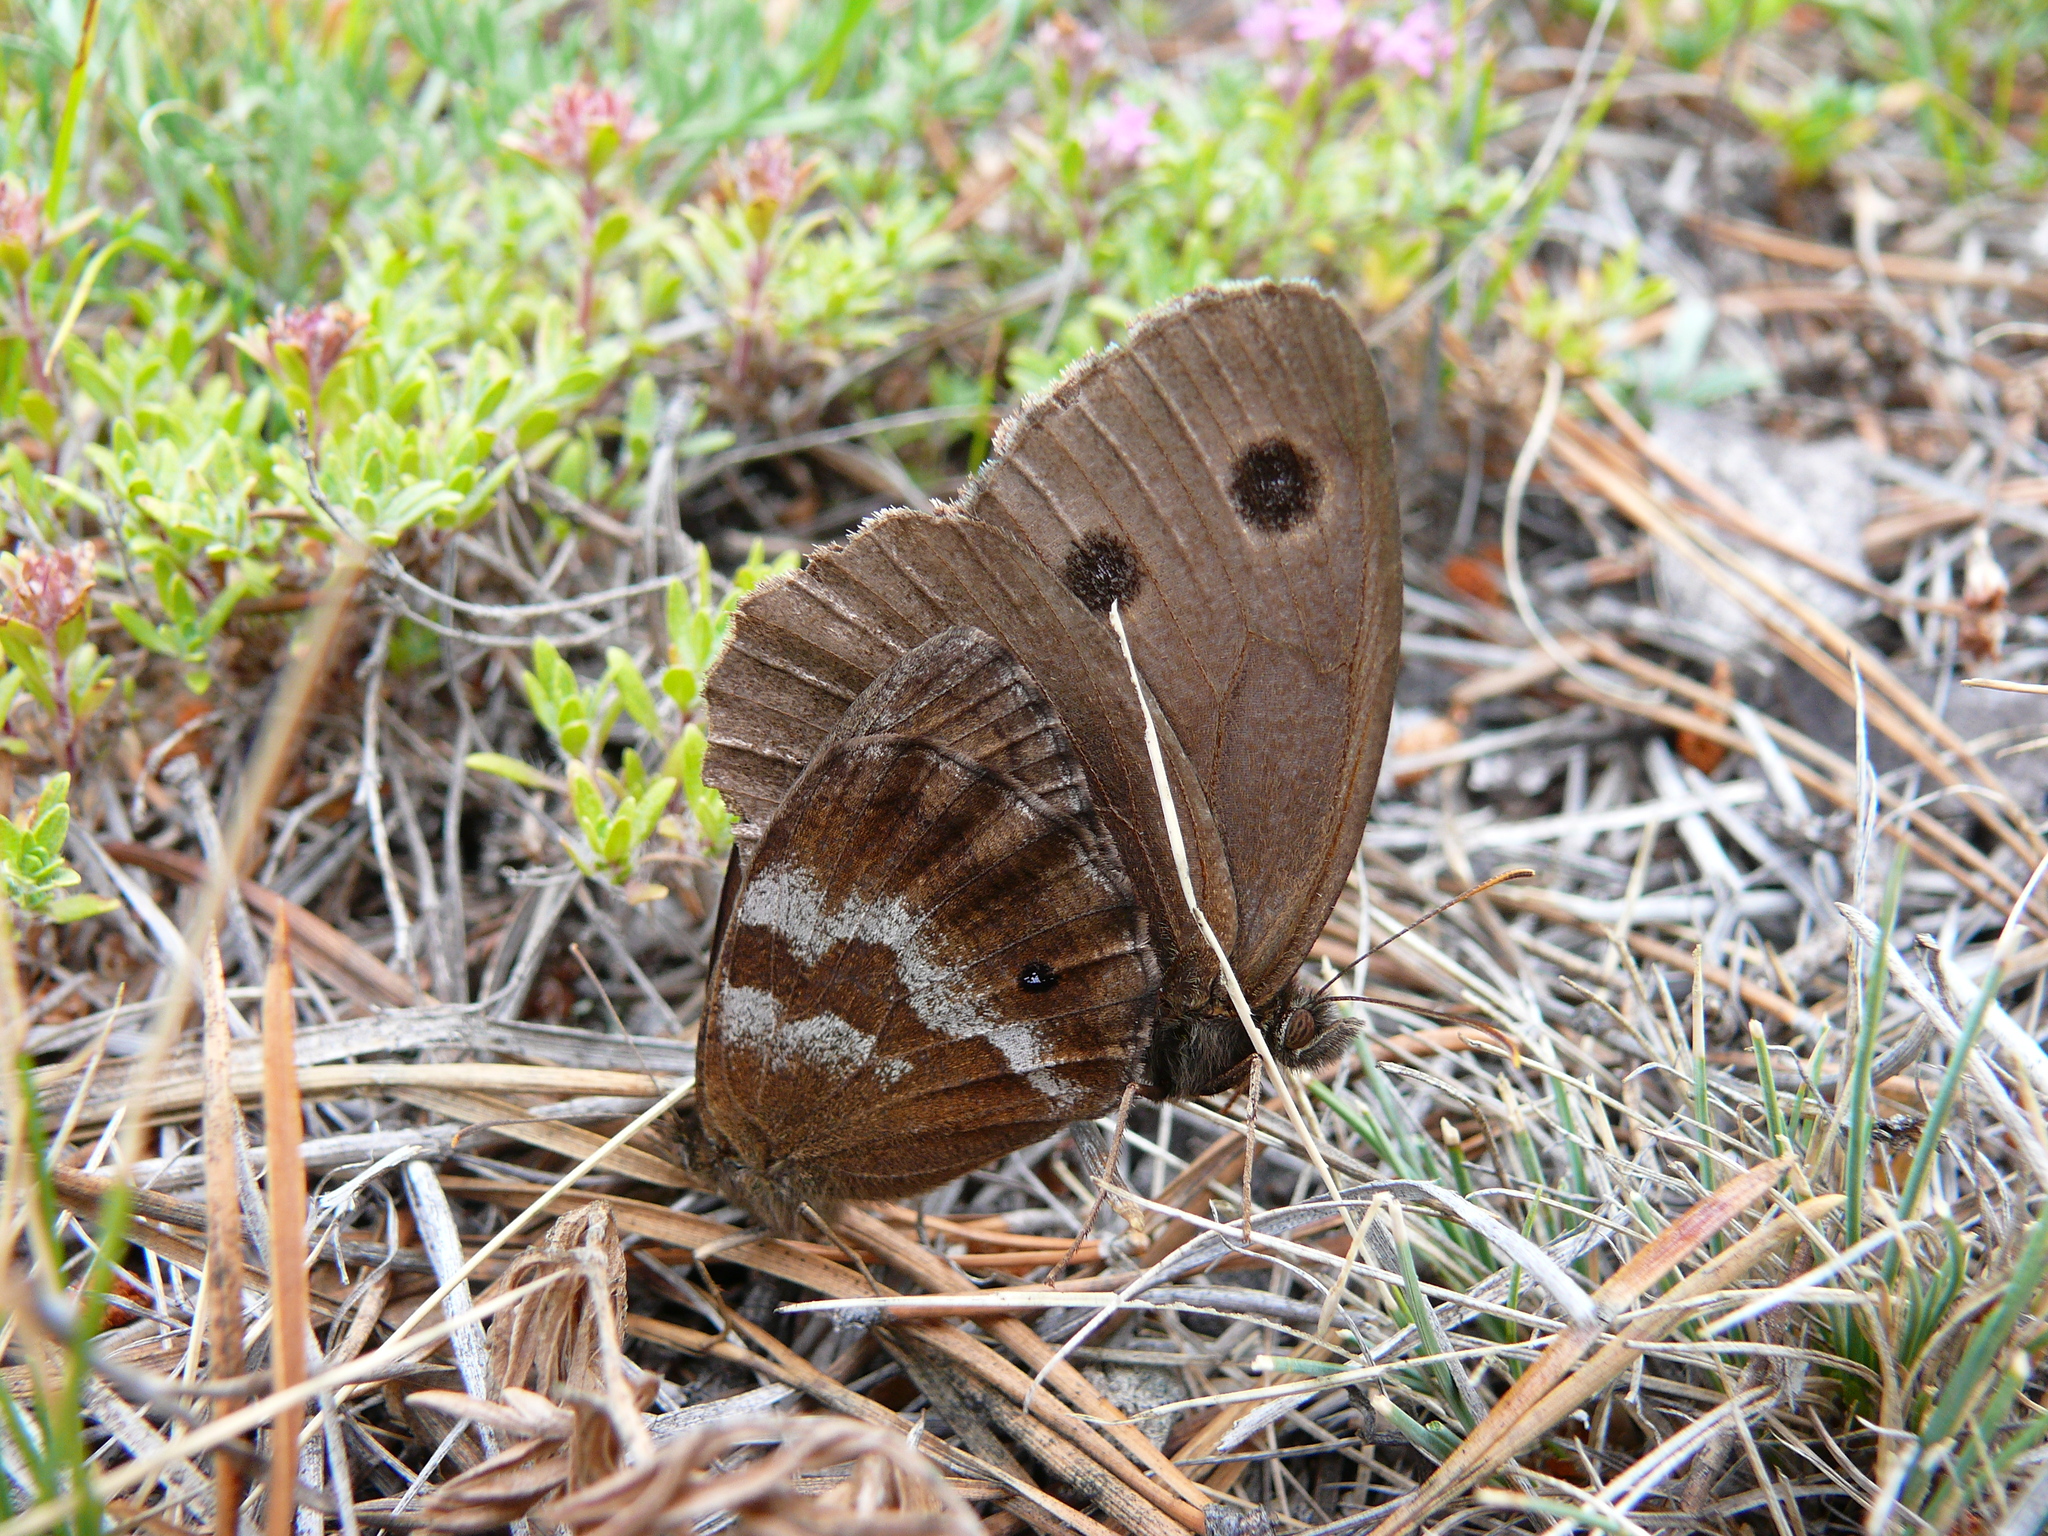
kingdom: Animalia
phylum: Arthropoda
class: Insecta
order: Lepidoptera
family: Nymphalidae
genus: Minois
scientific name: Minois dryas
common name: Dryad
